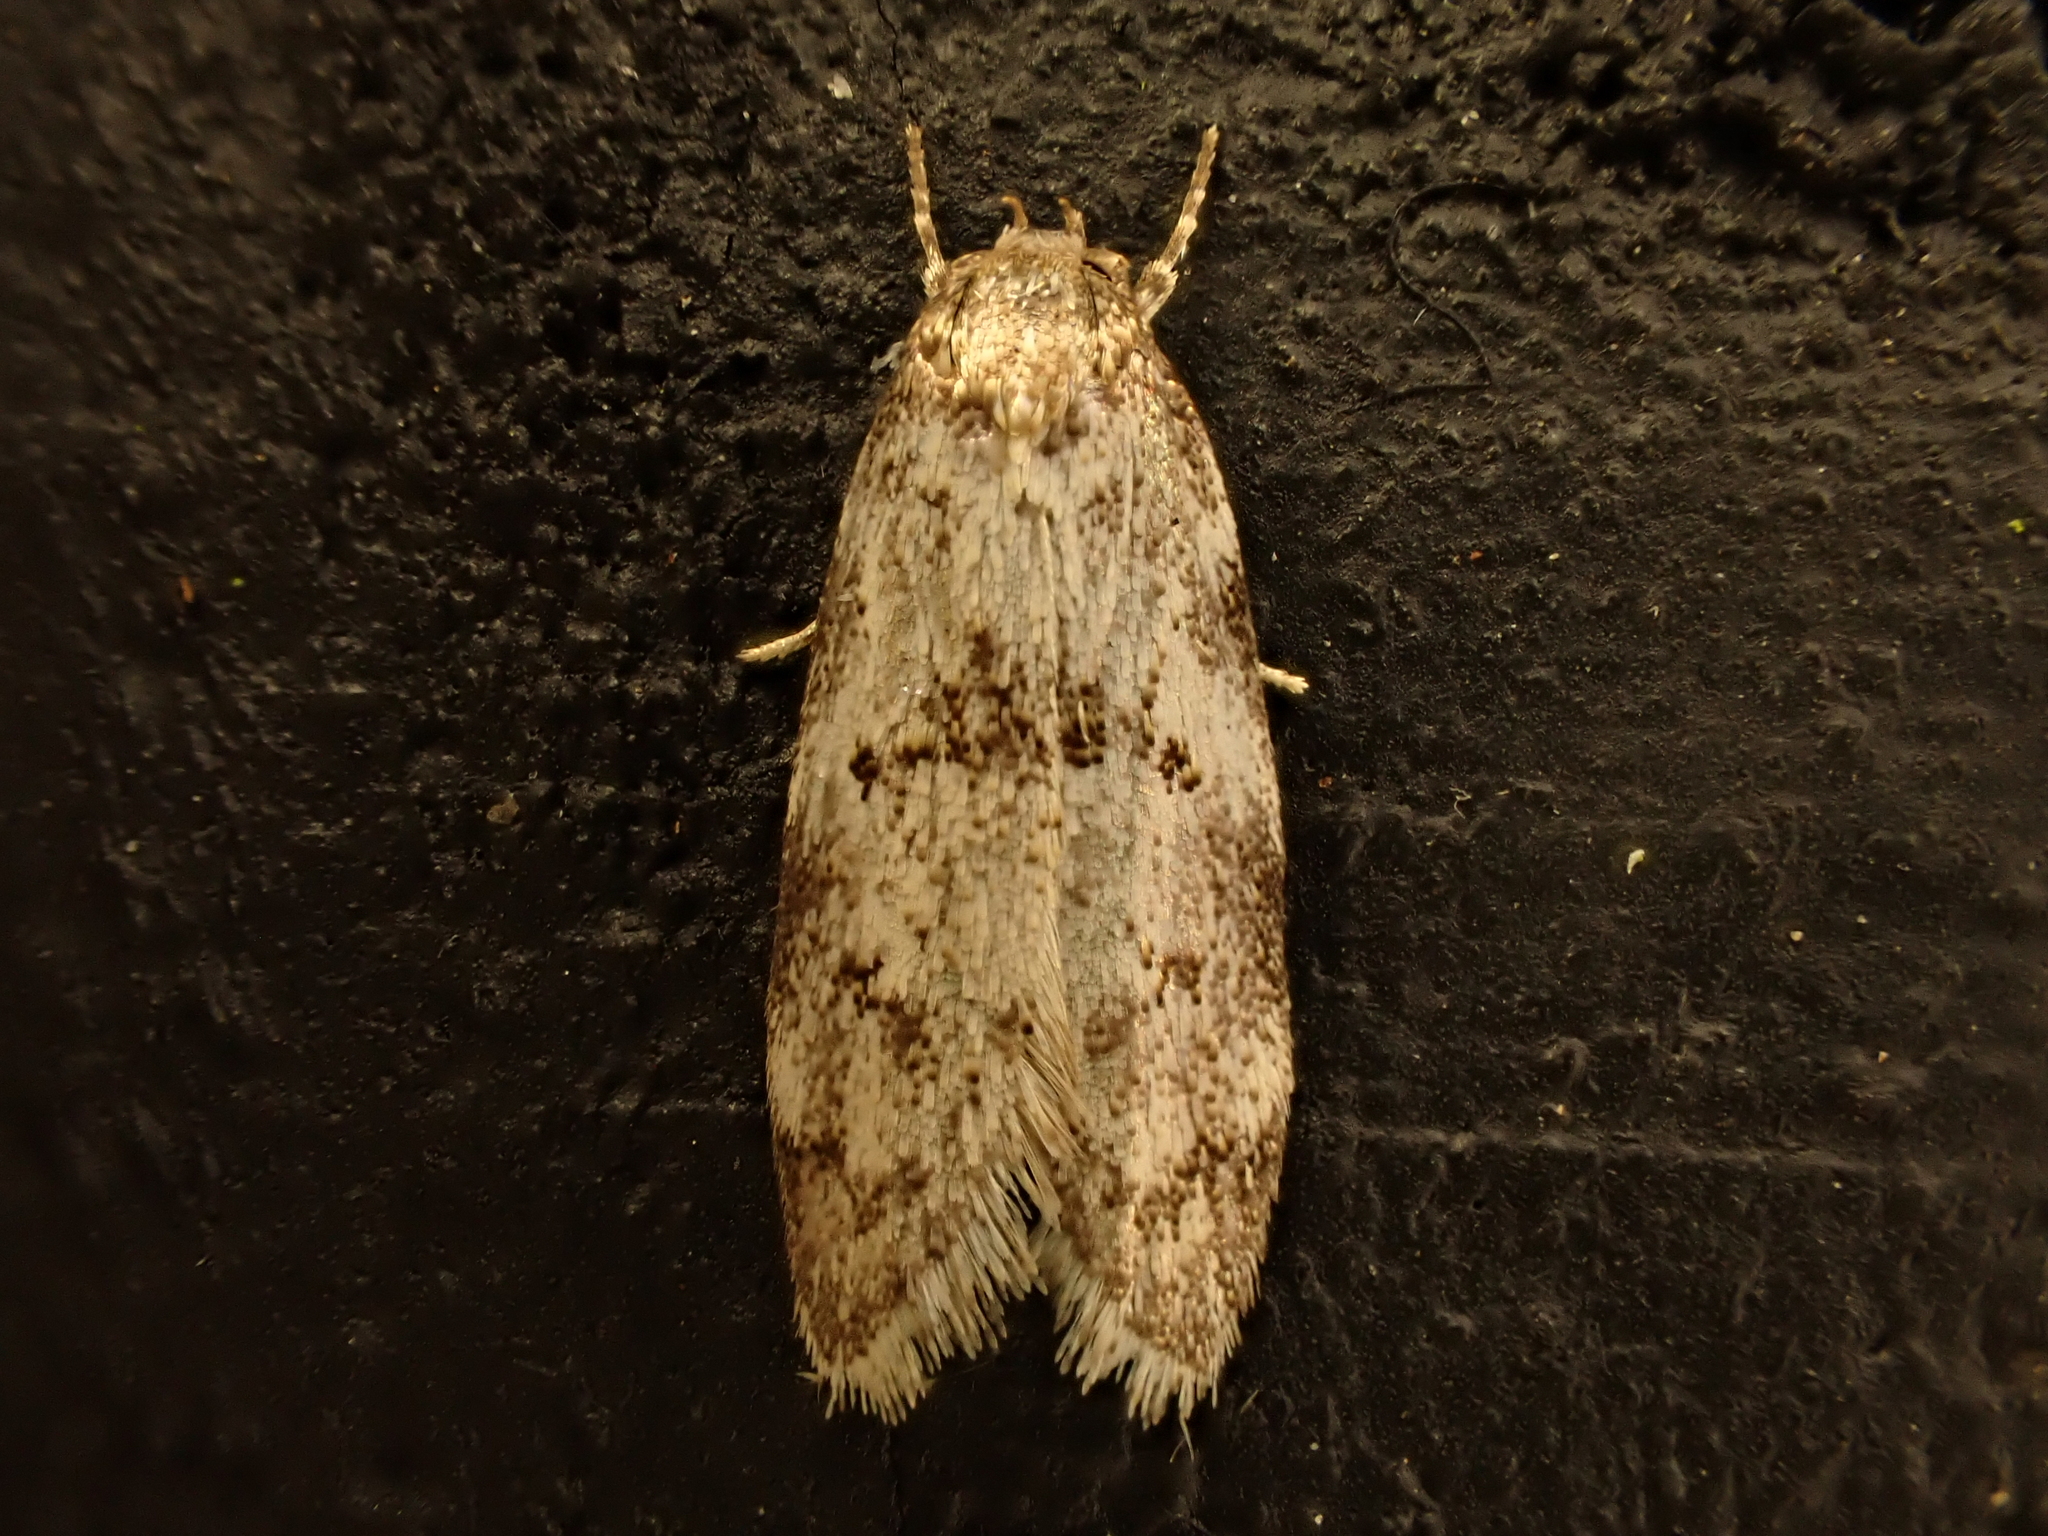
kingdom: Animalia
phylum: Arthropoda
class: Insecta
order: Lepidoptera
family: Oecophoridae
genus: Tingena
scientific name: Tingena clarkei
